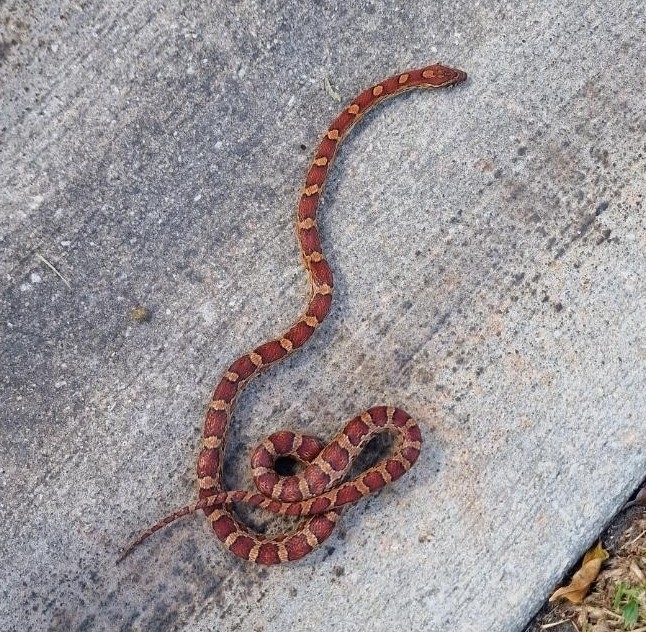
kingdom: Animalia
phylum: Chordata
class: Squamata
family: Colubridae
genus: Pantherophis
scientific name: Pantherophis guttatus
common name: Red cornsnake
